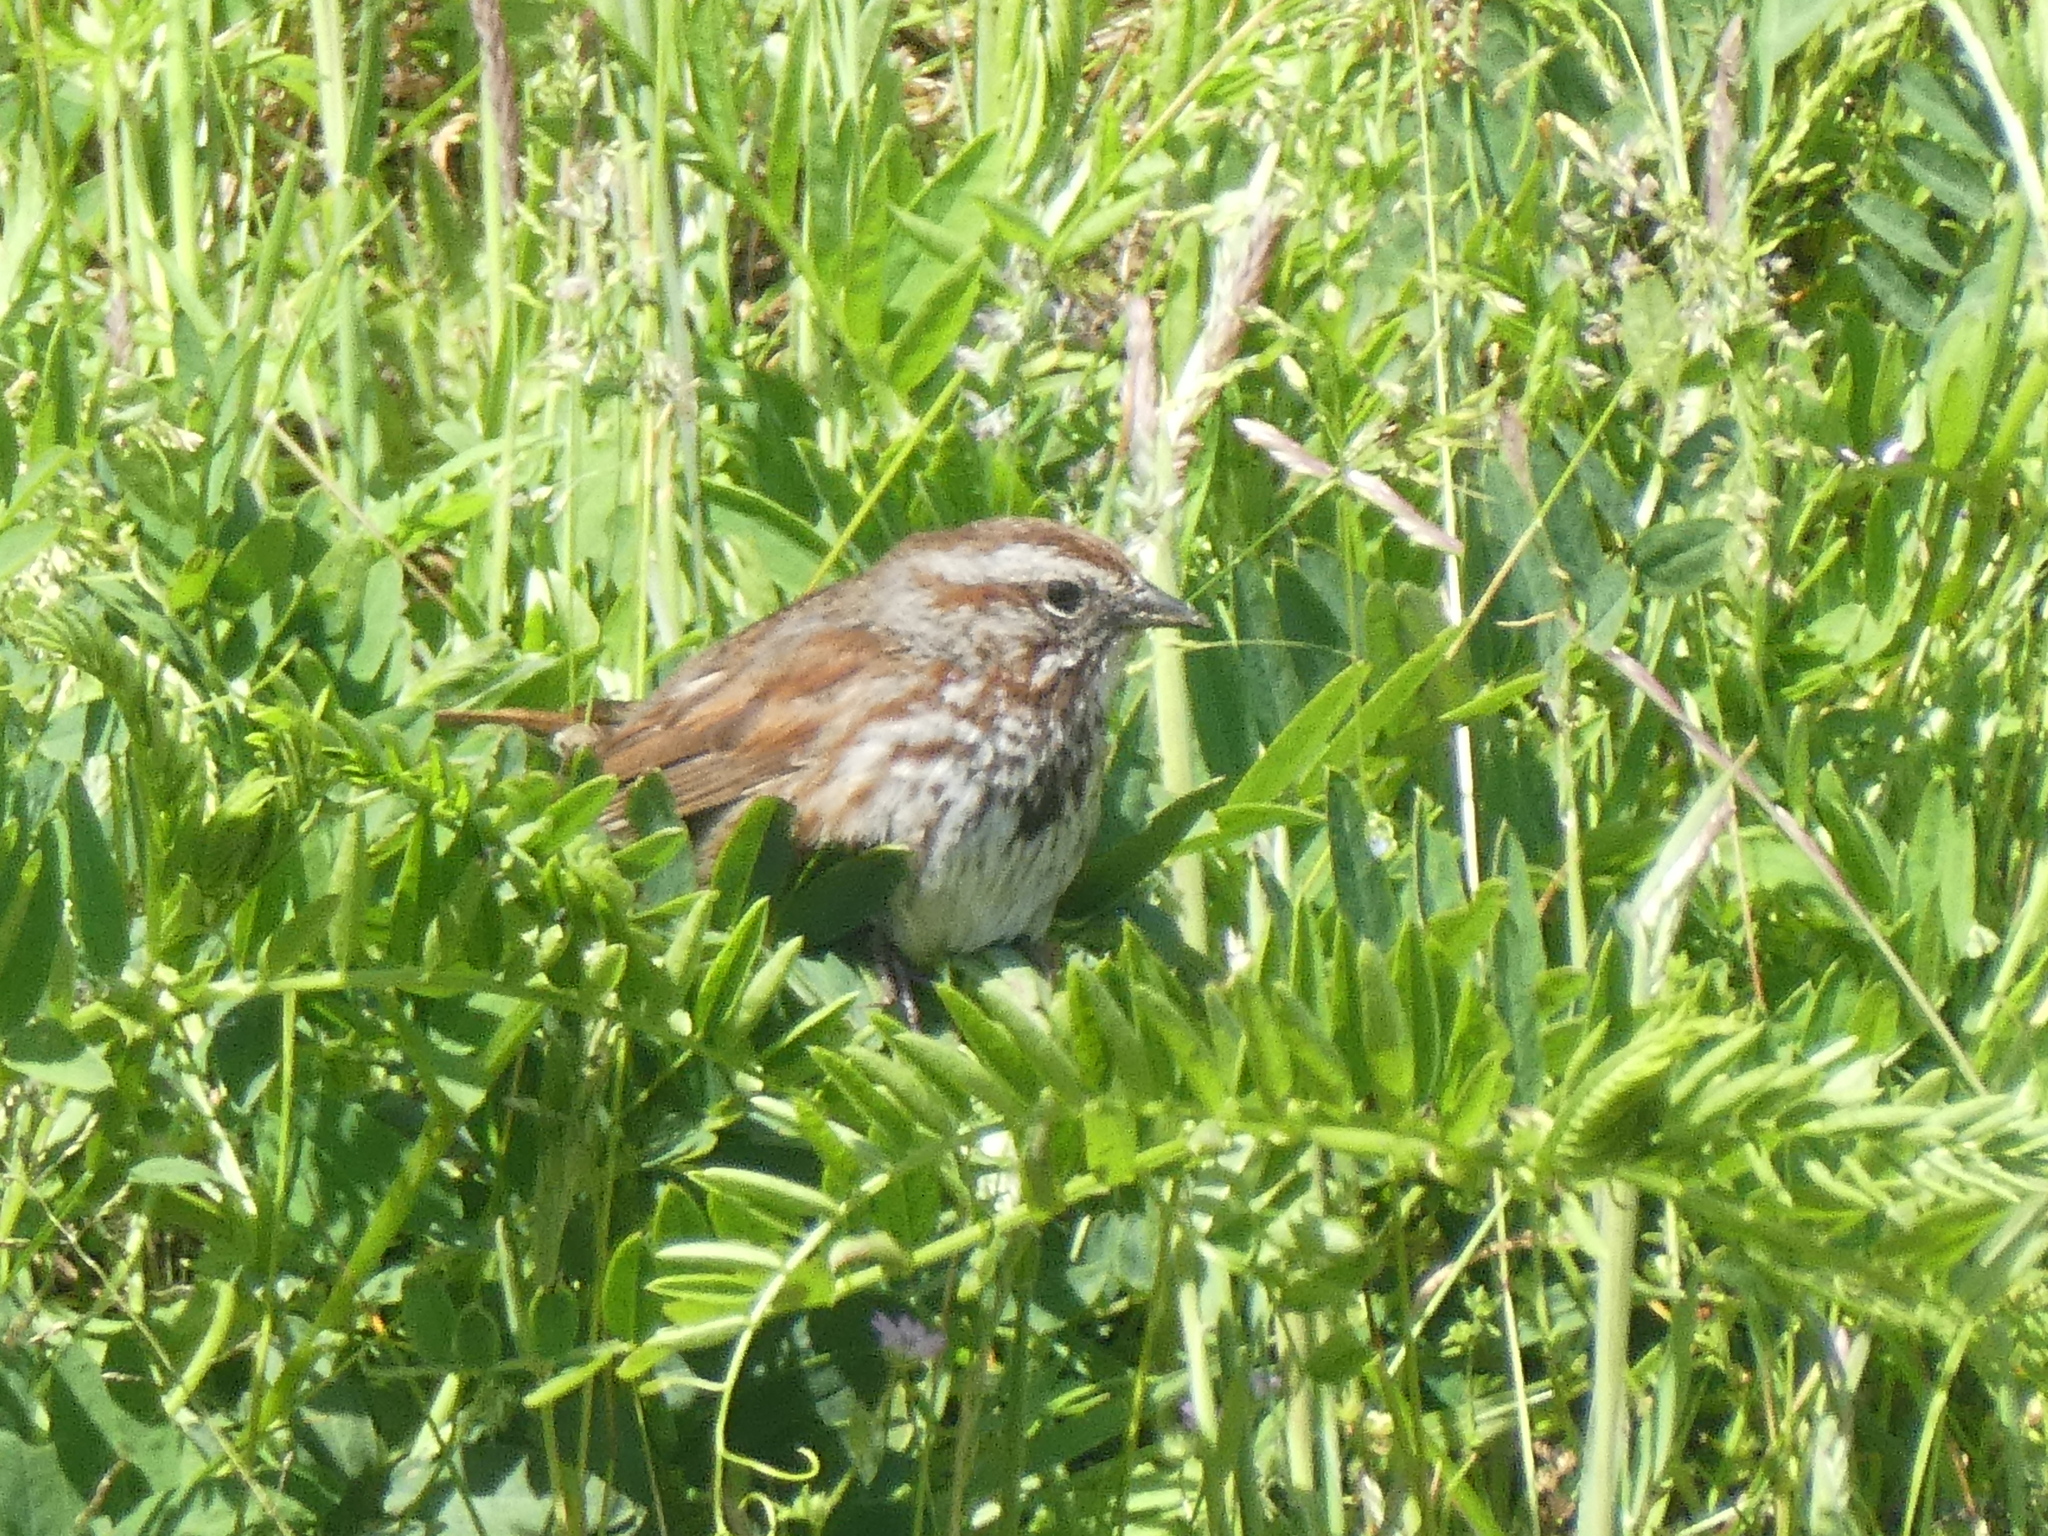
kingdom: Animalia
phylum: Chordata
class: Aves
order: Passeriformes
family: Passerellidae
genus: Melospiza
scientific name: Melospiza melodia
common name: Song sparrow
